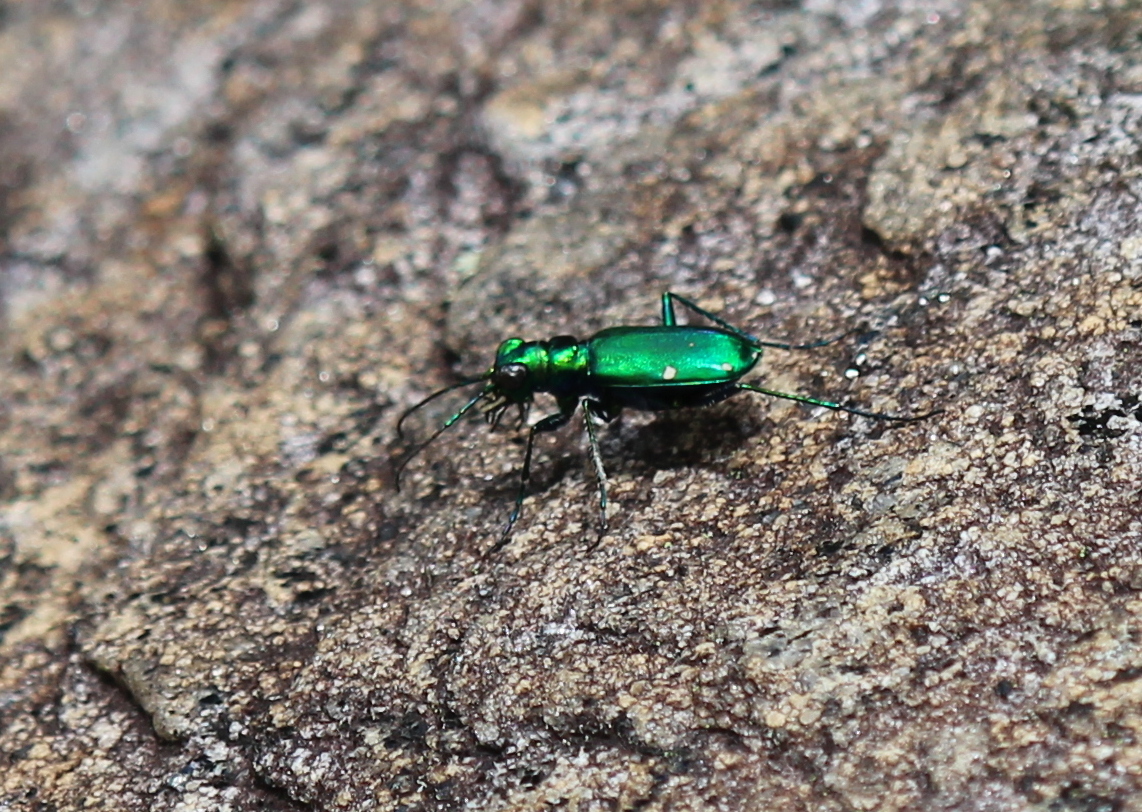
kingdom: Animalia
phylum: Arthropoda
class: Insecta
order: Coleoptera
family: Carabidae
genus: Cicindela
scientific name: Cicindela sexguttata
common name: Six-spotted tiger beetle
